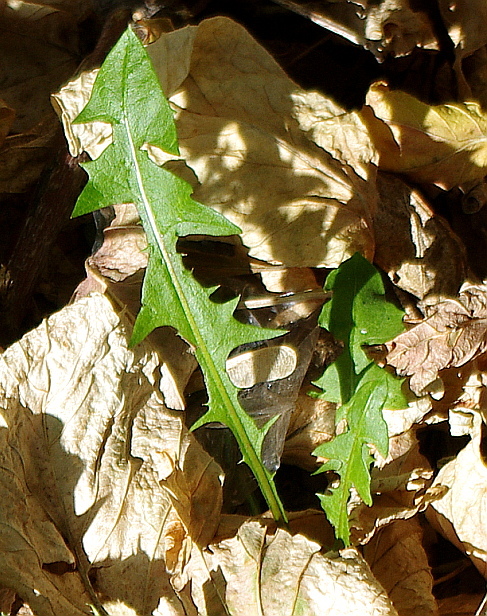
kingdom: Plantae
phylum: Tracheophyta
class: Magnoliopsida
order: Asterales
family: Asteraceae
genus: Taraxacum
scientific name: Taraxacum officinale
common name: Common dandelion
